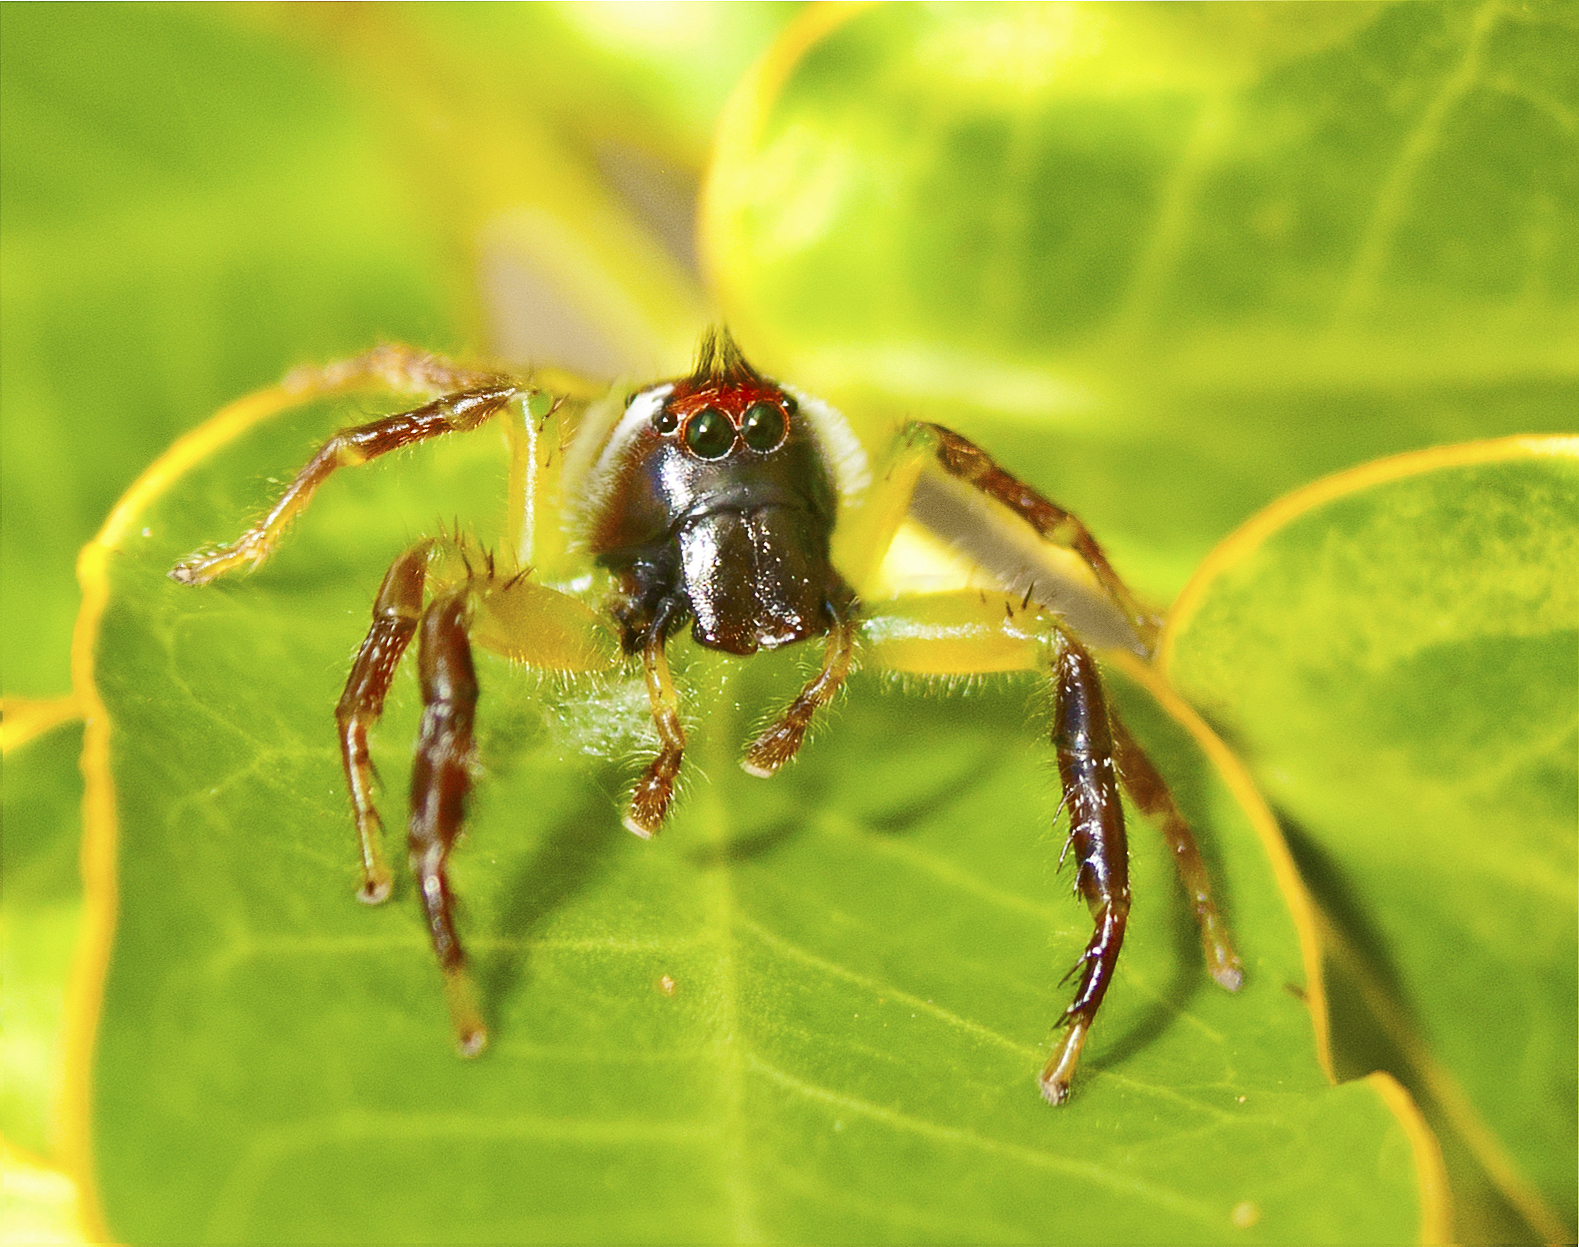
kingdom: Animalia
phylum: Arthropoda
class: Arachnida
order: Araneae
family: Salticidae
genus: Mopsus
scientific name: Mopsus mormon
